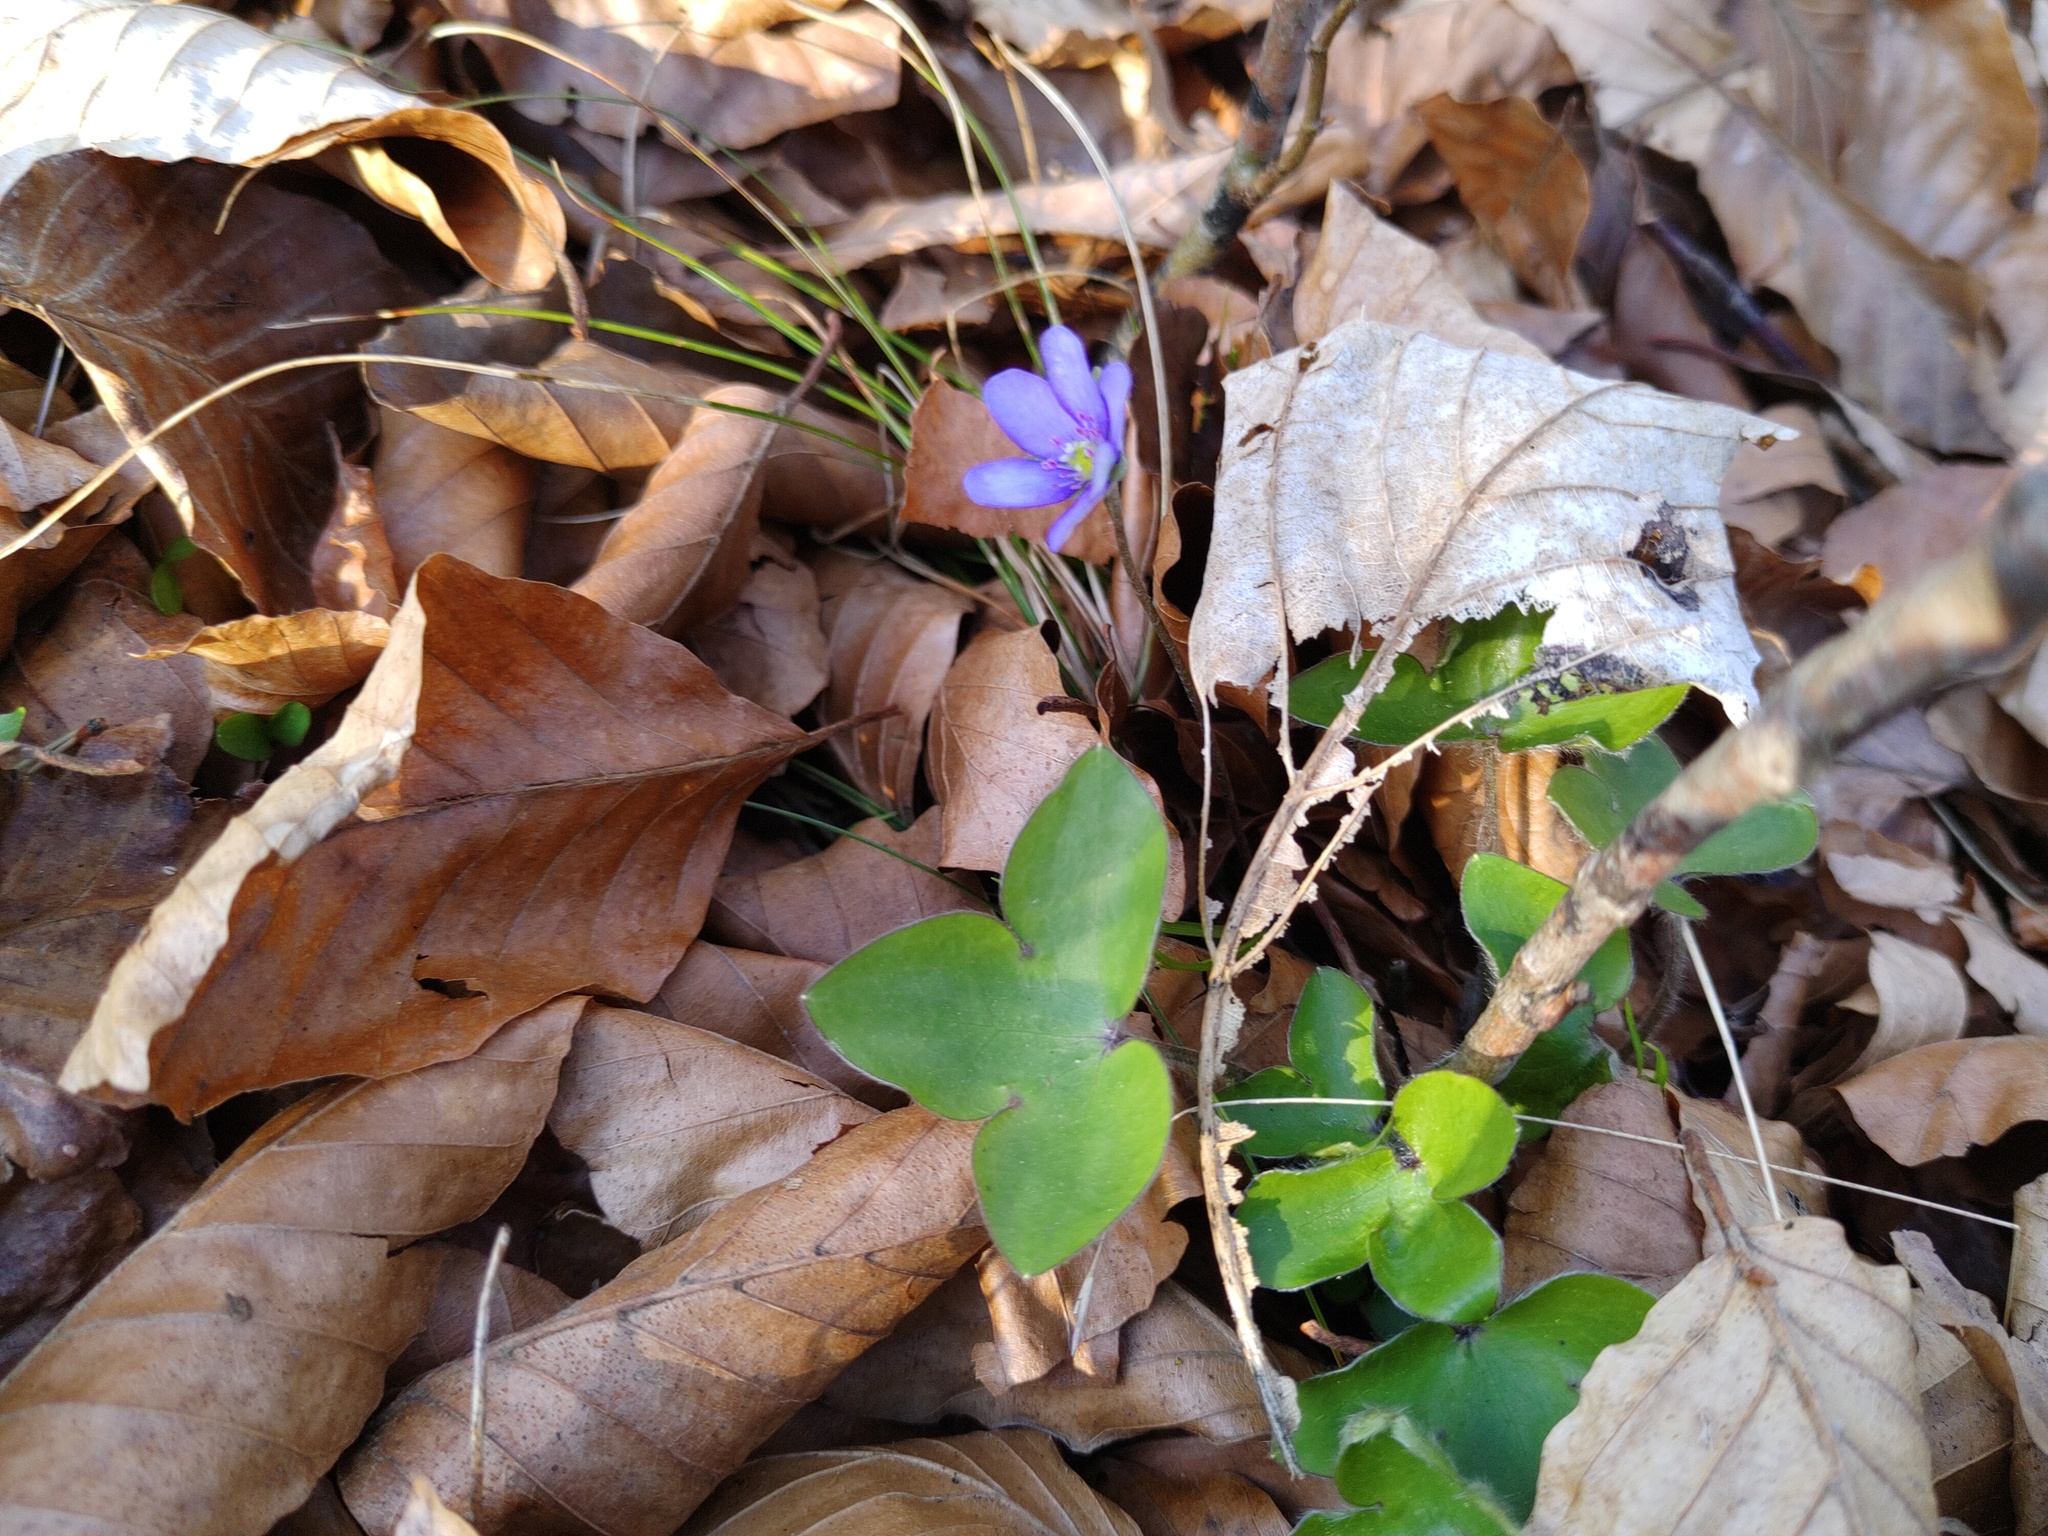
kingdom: Plantae
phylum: Tracheophyta
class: Magnoliopsida
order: Ranunculales
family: Ranunculaceae
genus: Hepatica
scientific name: Hepatica nobilis
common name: Liverleaf
